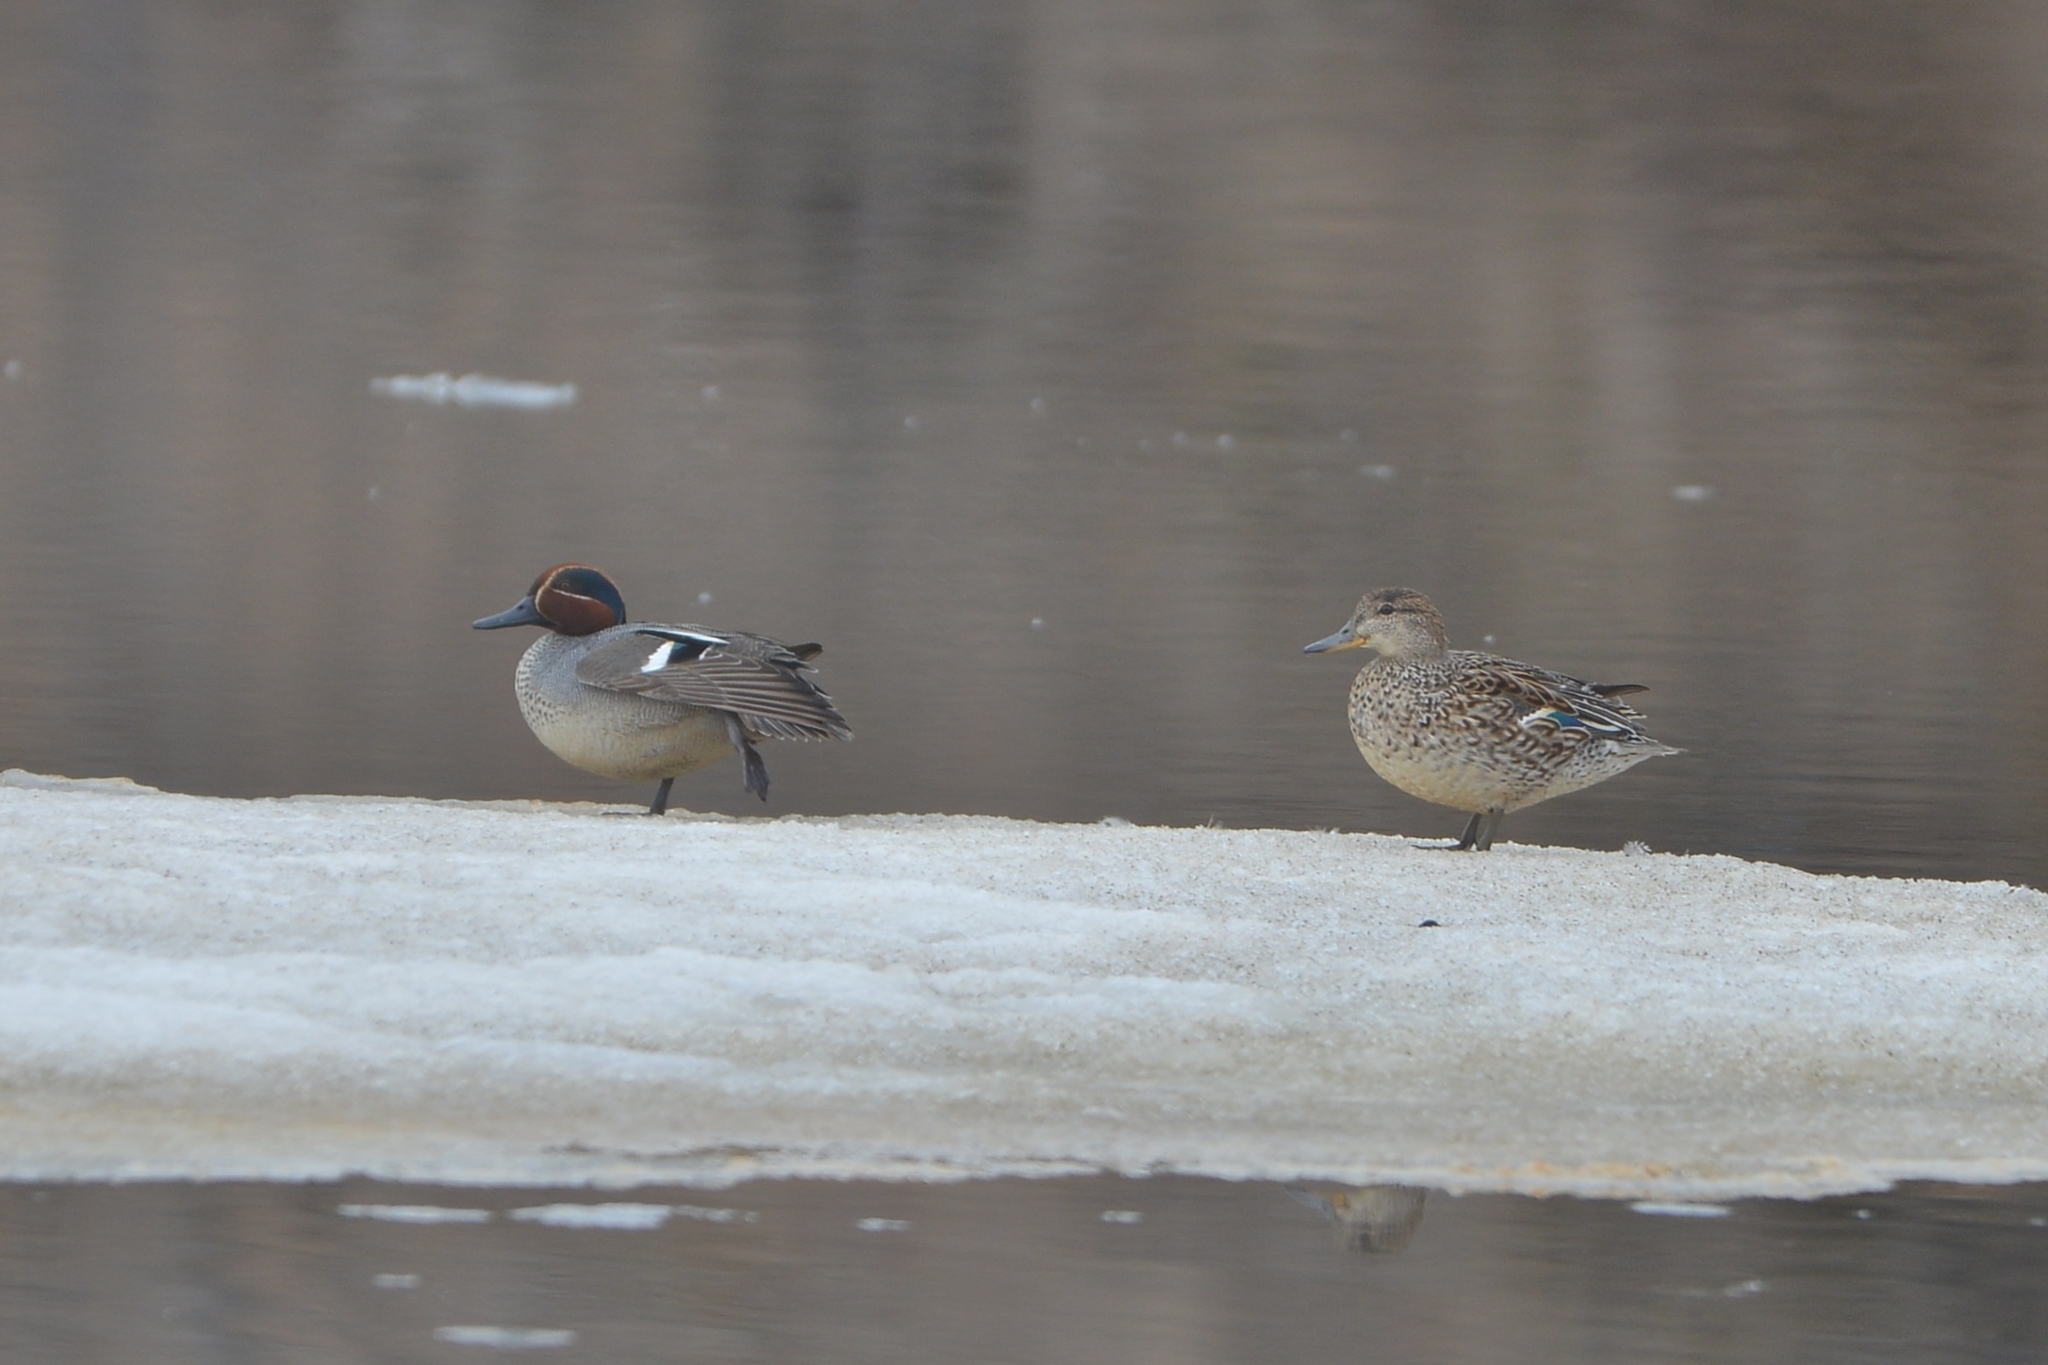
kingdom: Animalia
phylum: Chordata
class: Aves
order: Anseriformes
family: Anatidae
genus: Anas
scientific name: Anas crecca
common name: Eurasian teal
